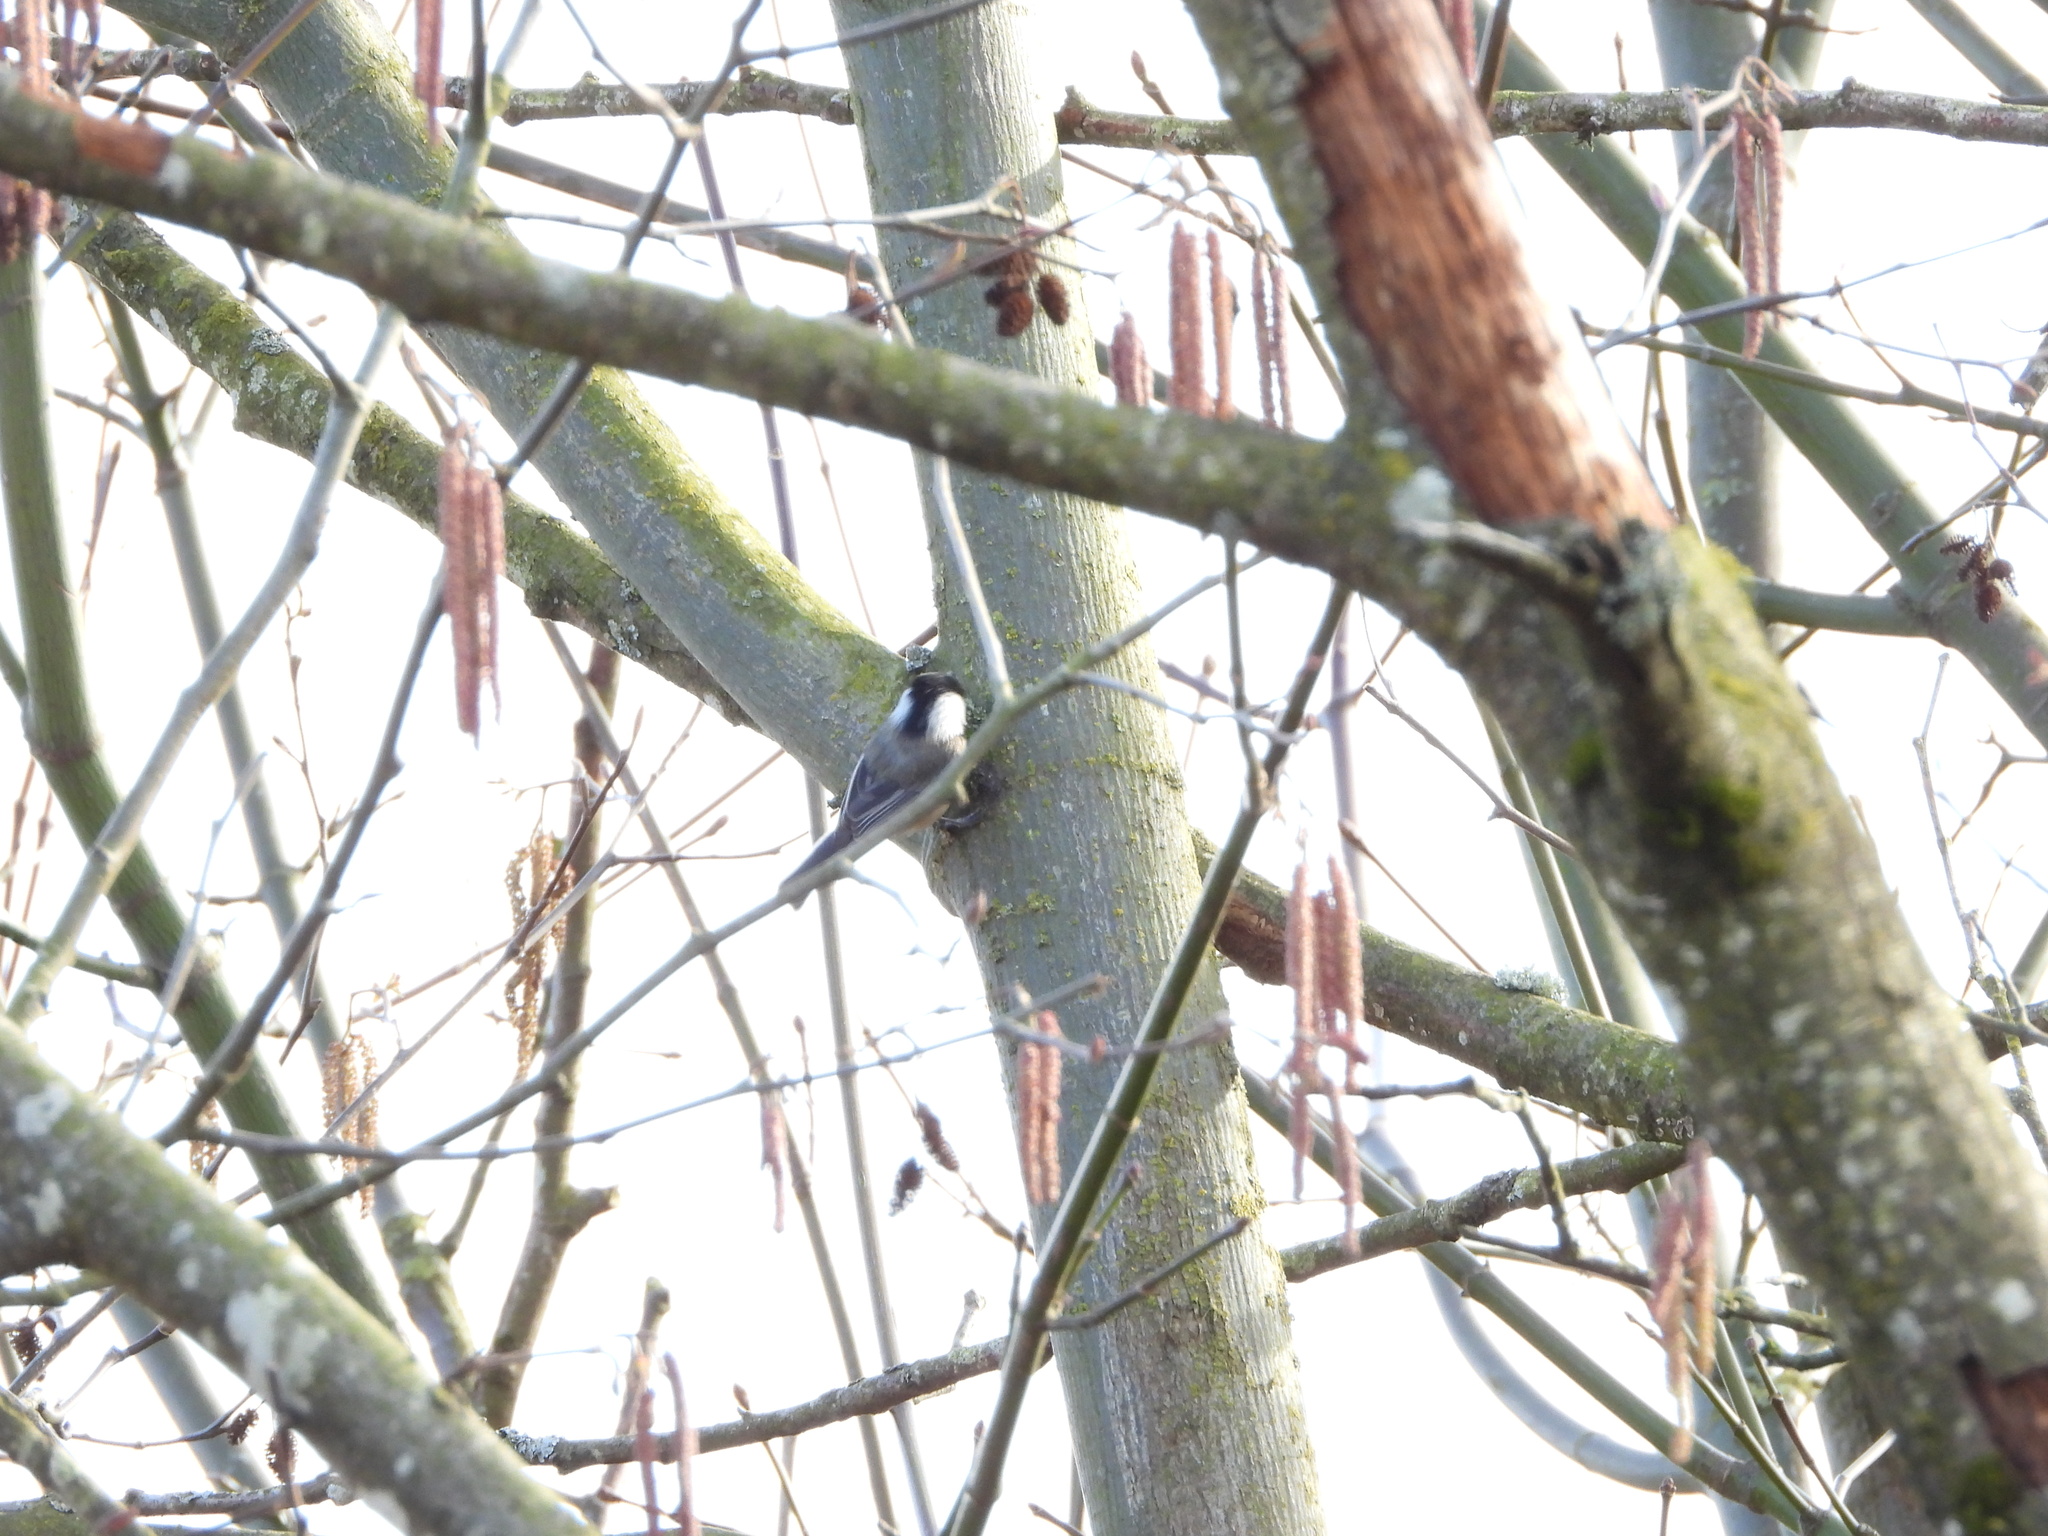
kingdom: Animalia
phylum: Chordata
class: Aves
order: Passeriformes
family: Paridae
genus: Poecile
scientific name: Poecile atricapillus
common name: Black-capped chickadee
